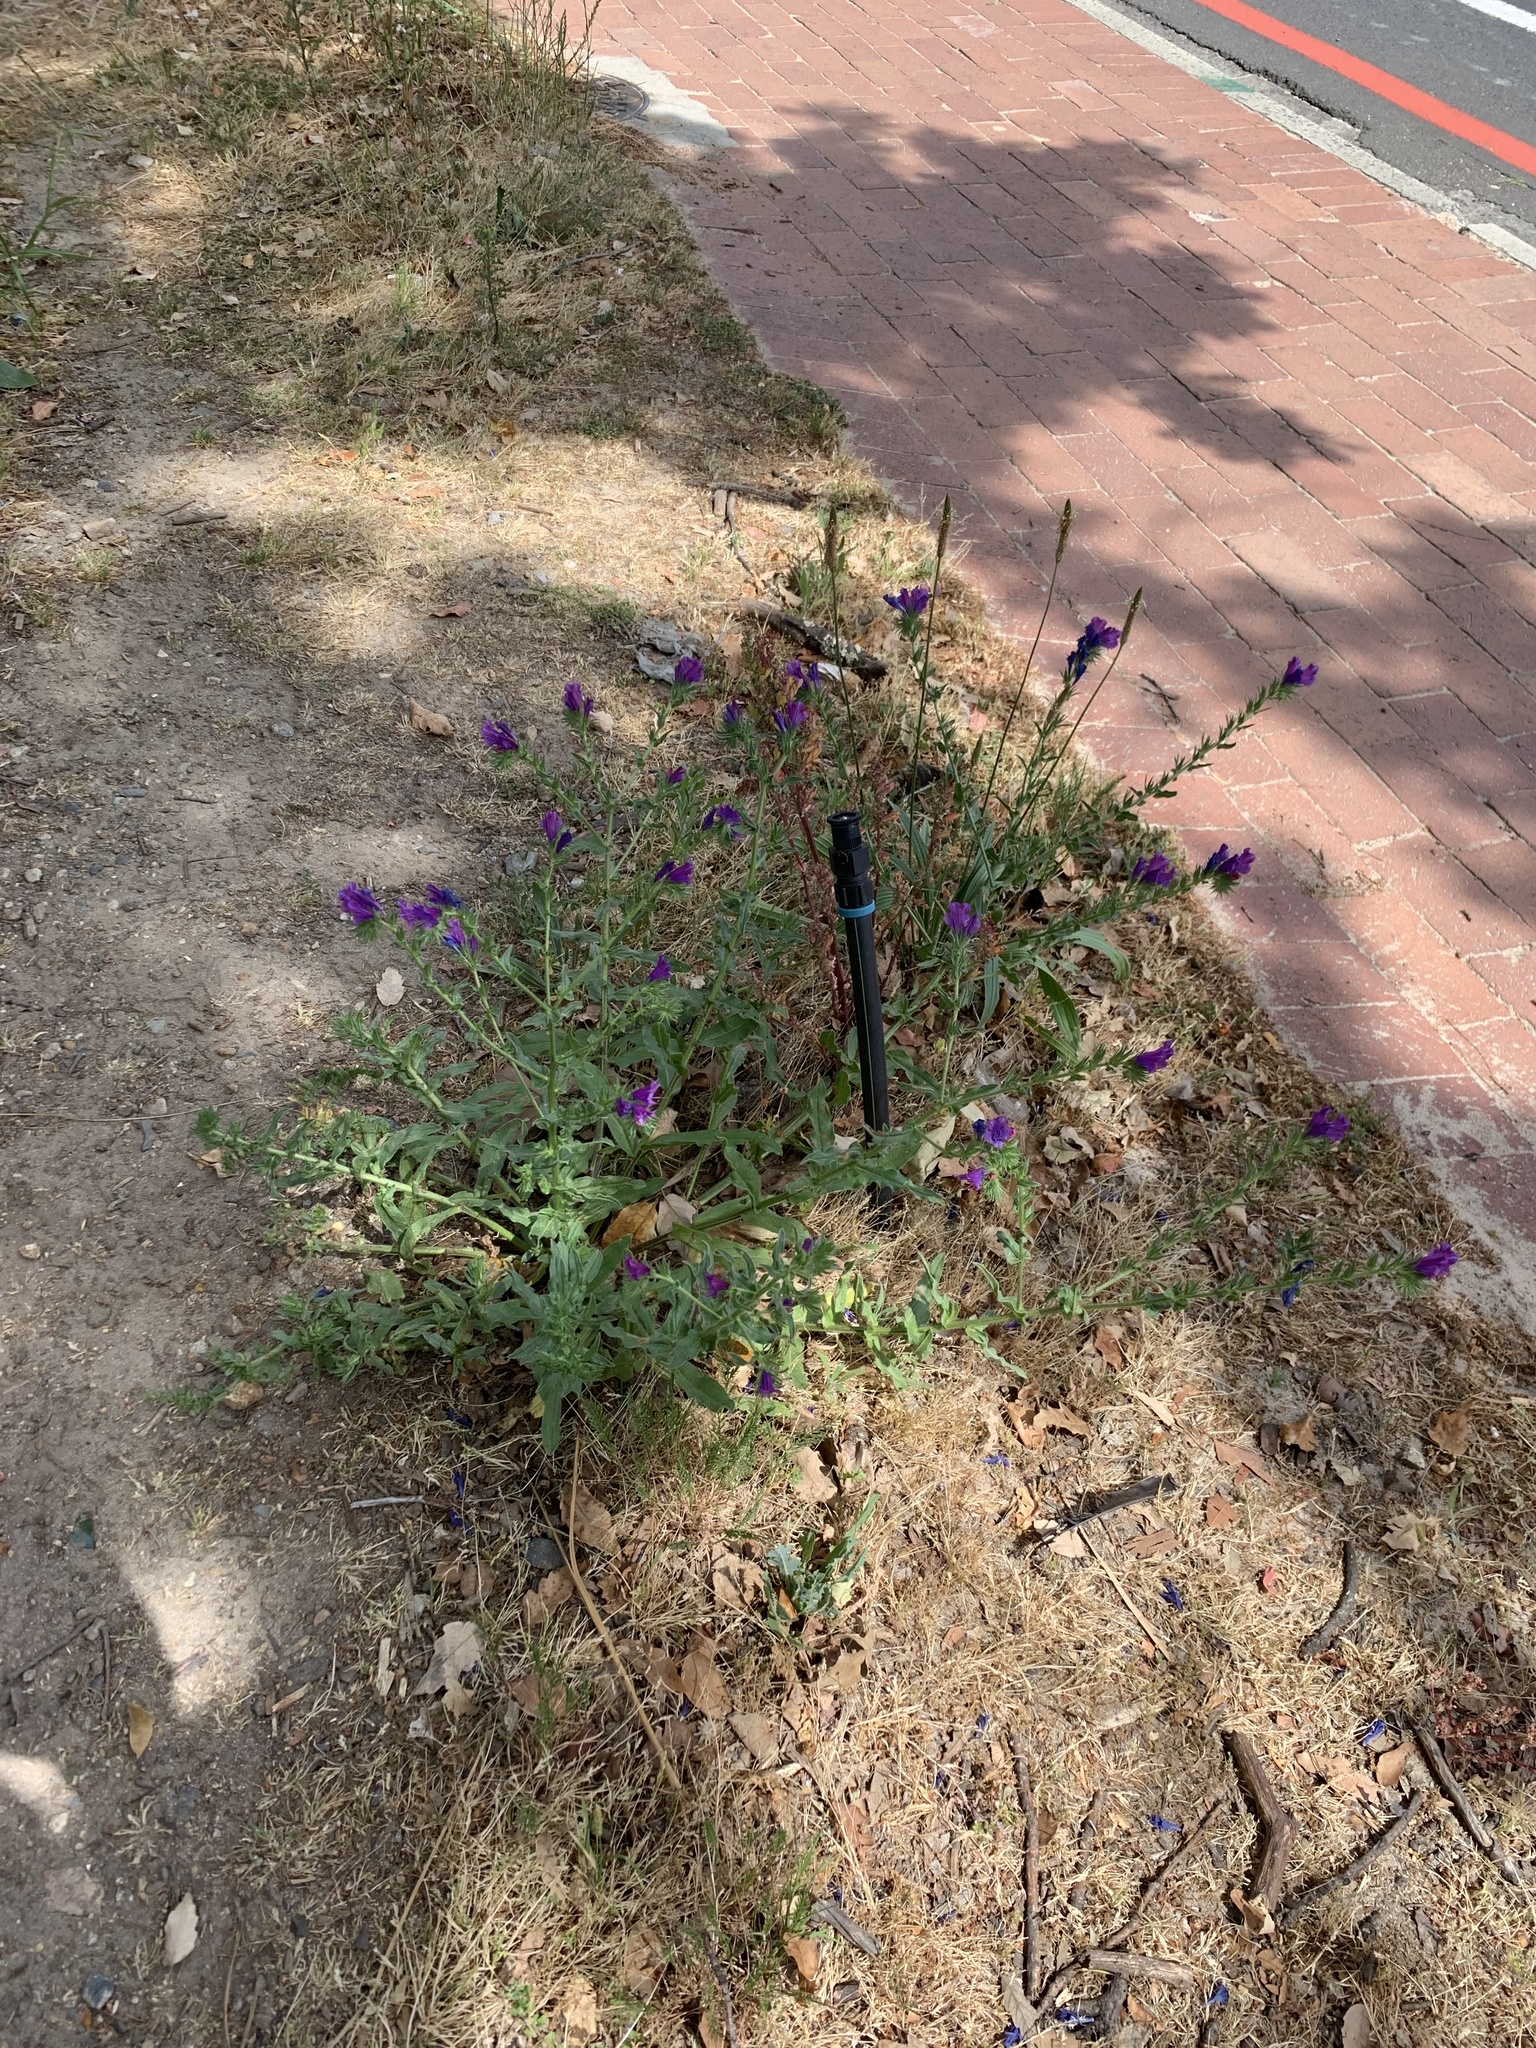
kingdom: Plantae
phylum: Tracheophyta
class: Magnoliopsida
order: Boraginales
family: Boraginaceae
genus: Echium
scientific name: Echium plantagineum
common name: Purple viper's-bugloss
